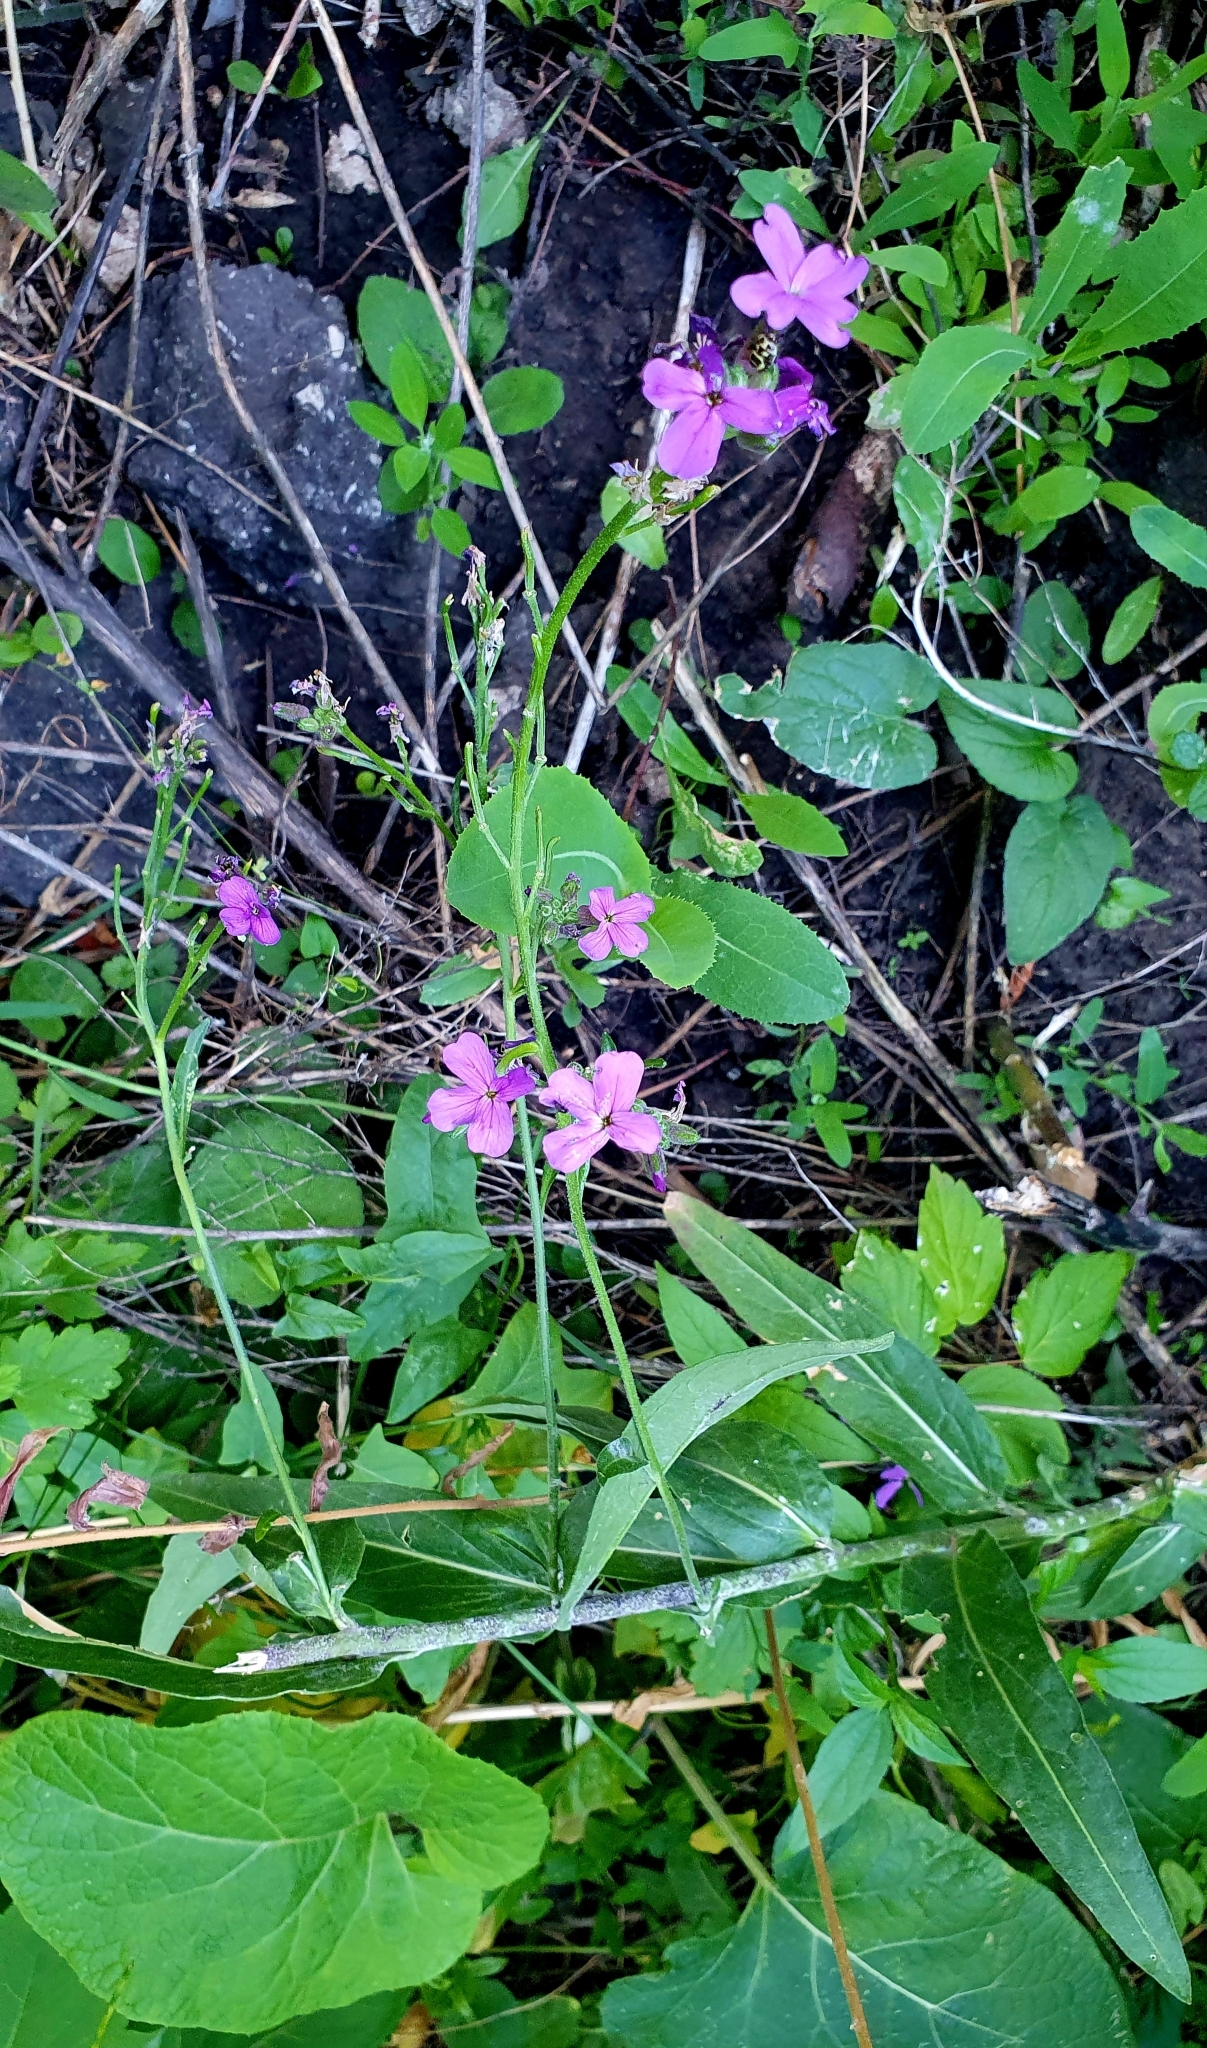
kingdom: Plantae
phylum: Tracheophyta
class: Magnoliopsida
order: Brassicales
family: Brassicaceae
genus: Hesperis
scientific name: Hesperis matronalis
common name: Dame's-violet
